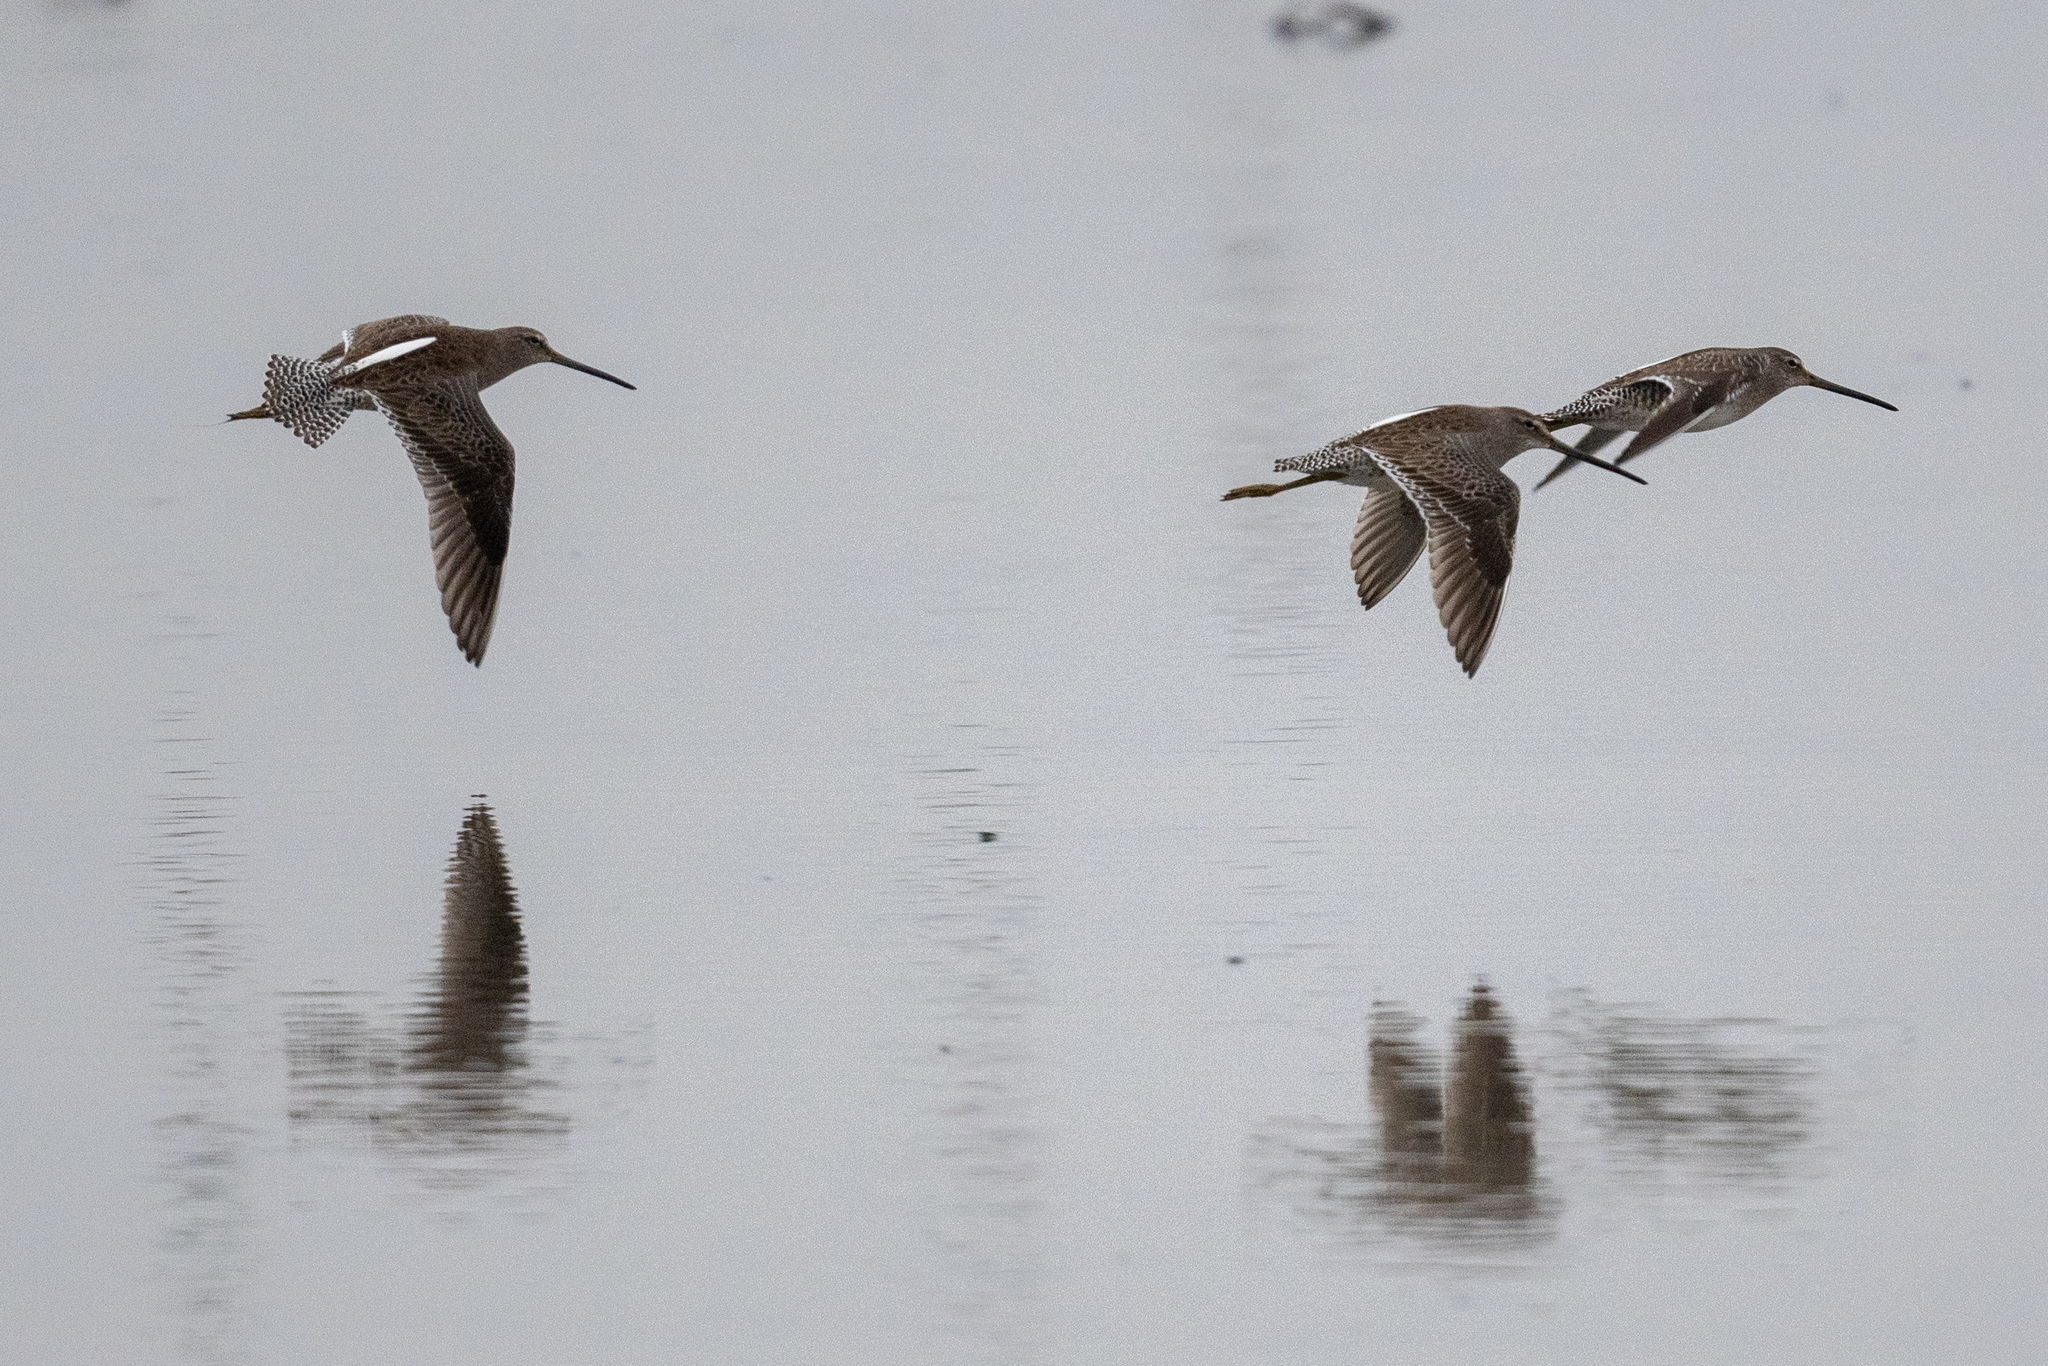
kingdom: Animalia
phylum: Chordata
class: Aves
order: Charadriiformes
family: Scolopacidae
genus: Limnodromus
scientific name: Limnodromus scolopaceus
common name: Long-billed dowitcher
